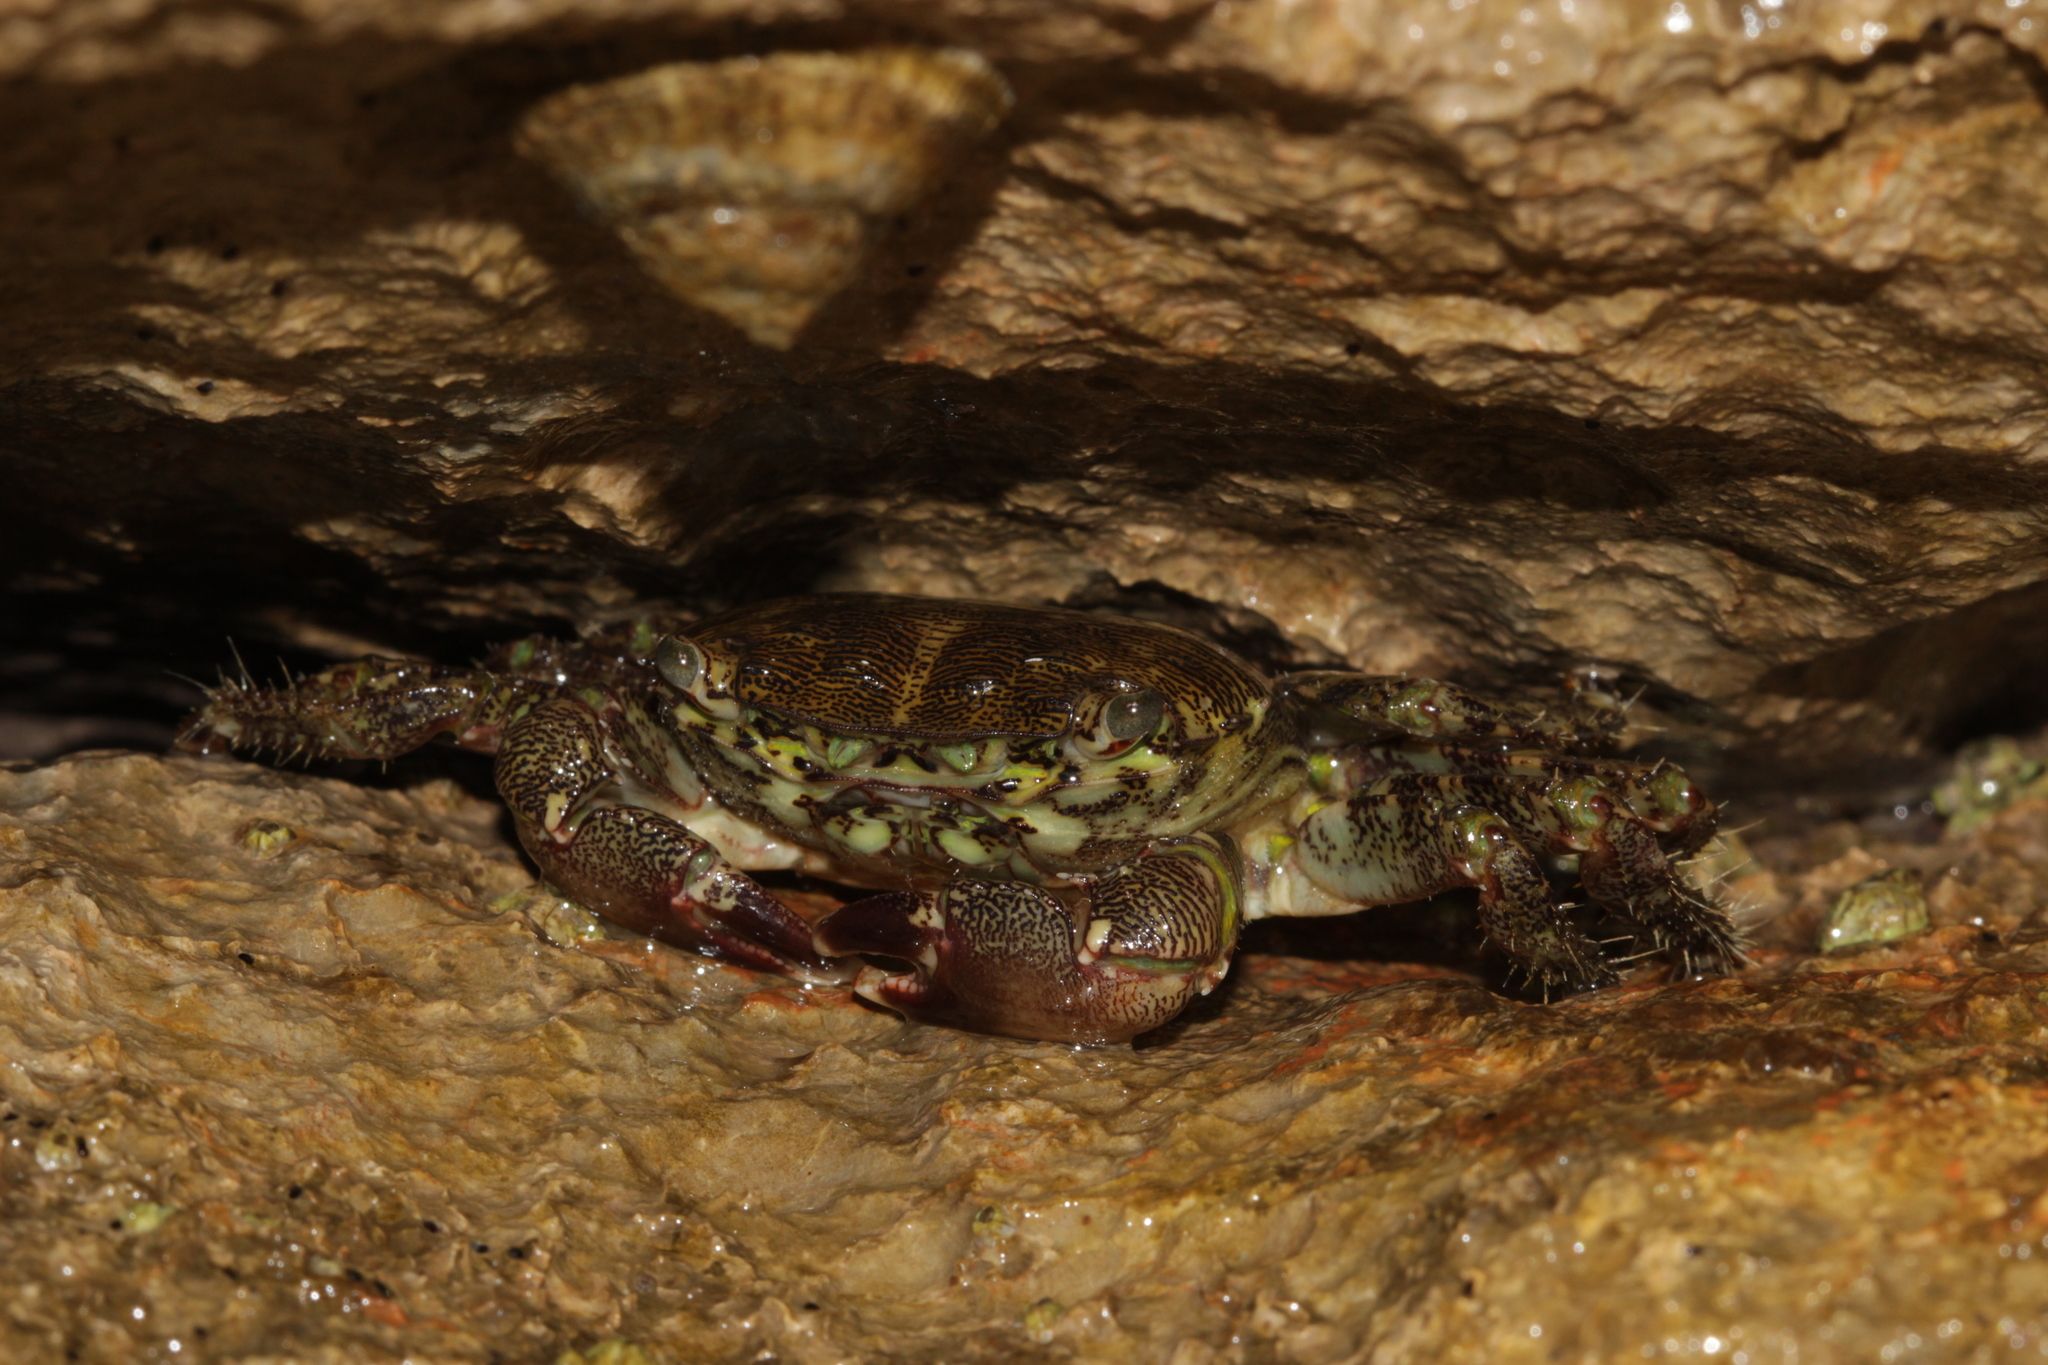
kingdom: Animalia
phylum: Arthropoda
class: Malacostraca
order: Decapoda
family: Grapsidae
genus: Pachygrapsus
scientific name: Pachygrapsus marmoratus
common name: Marbled rock crab
